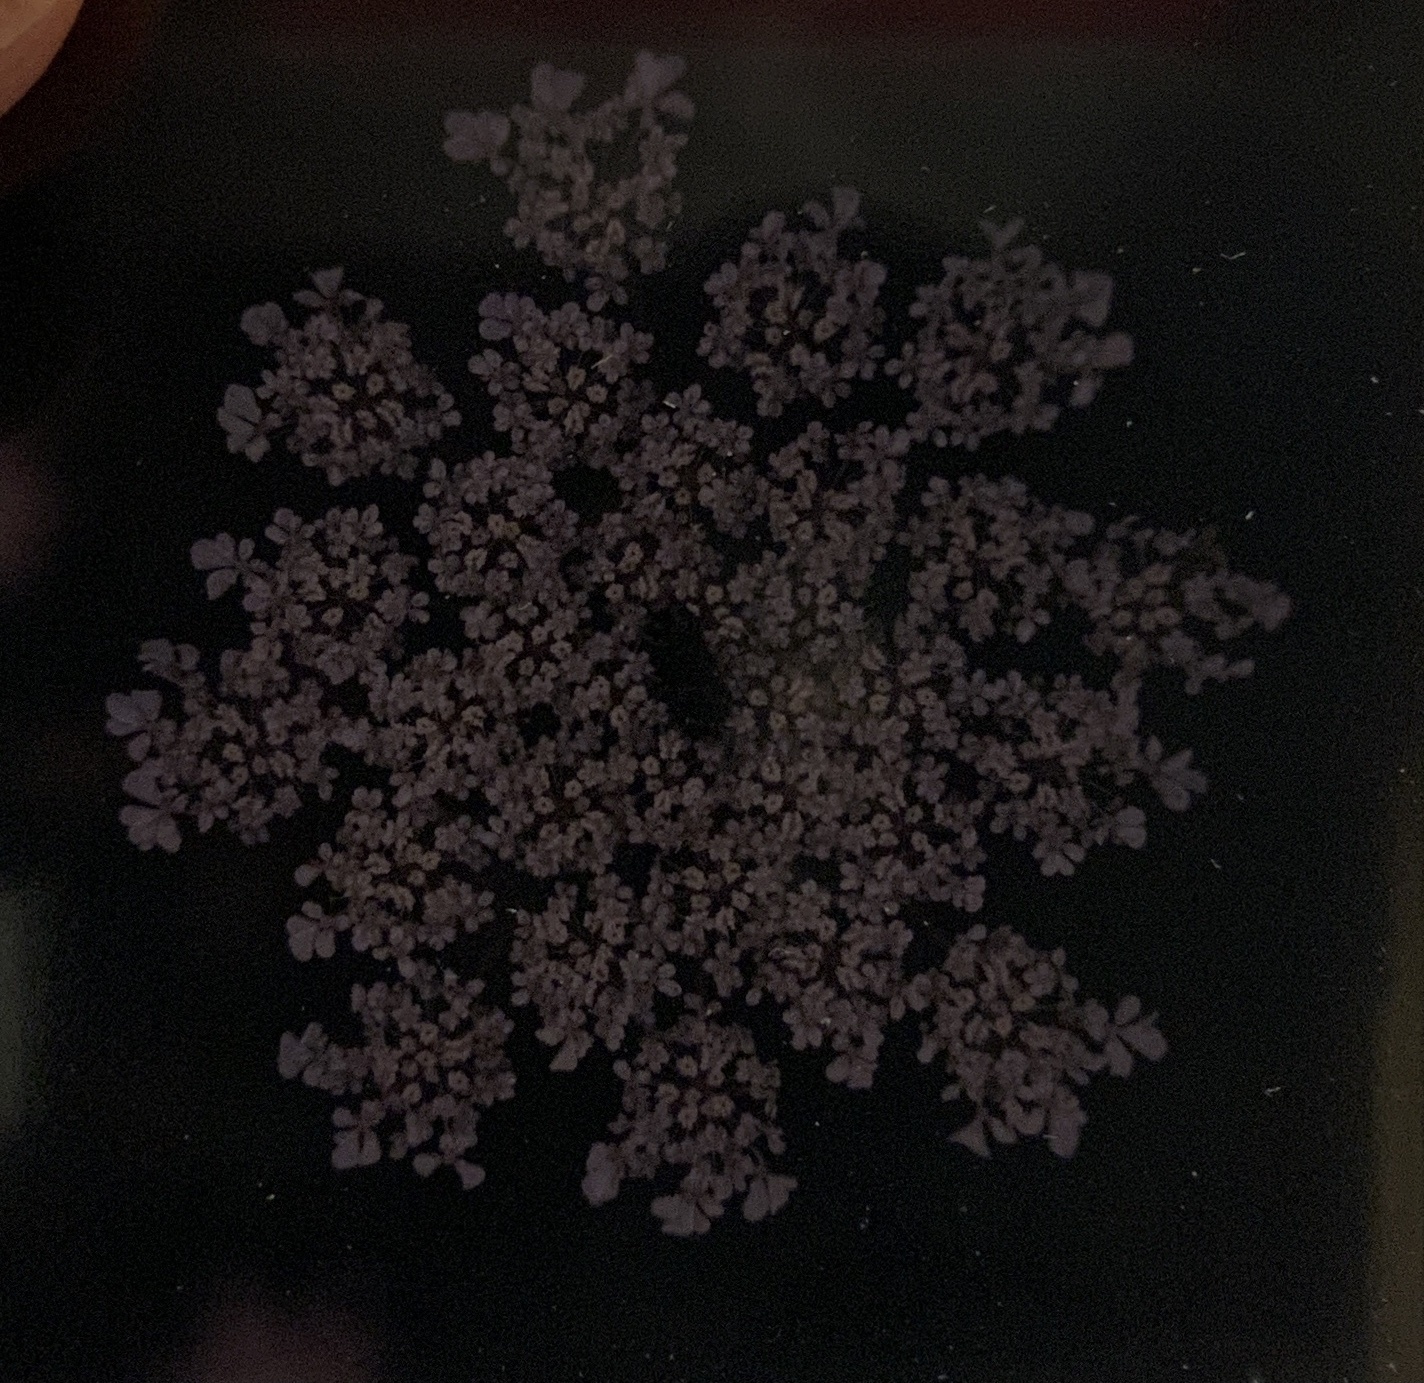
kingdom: Plantae
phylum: Tracheophyta
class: Magnoliopsida
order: Apiales
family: Apiaceae
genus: Daucus
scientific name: Daucus carota
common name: Wild carrot
